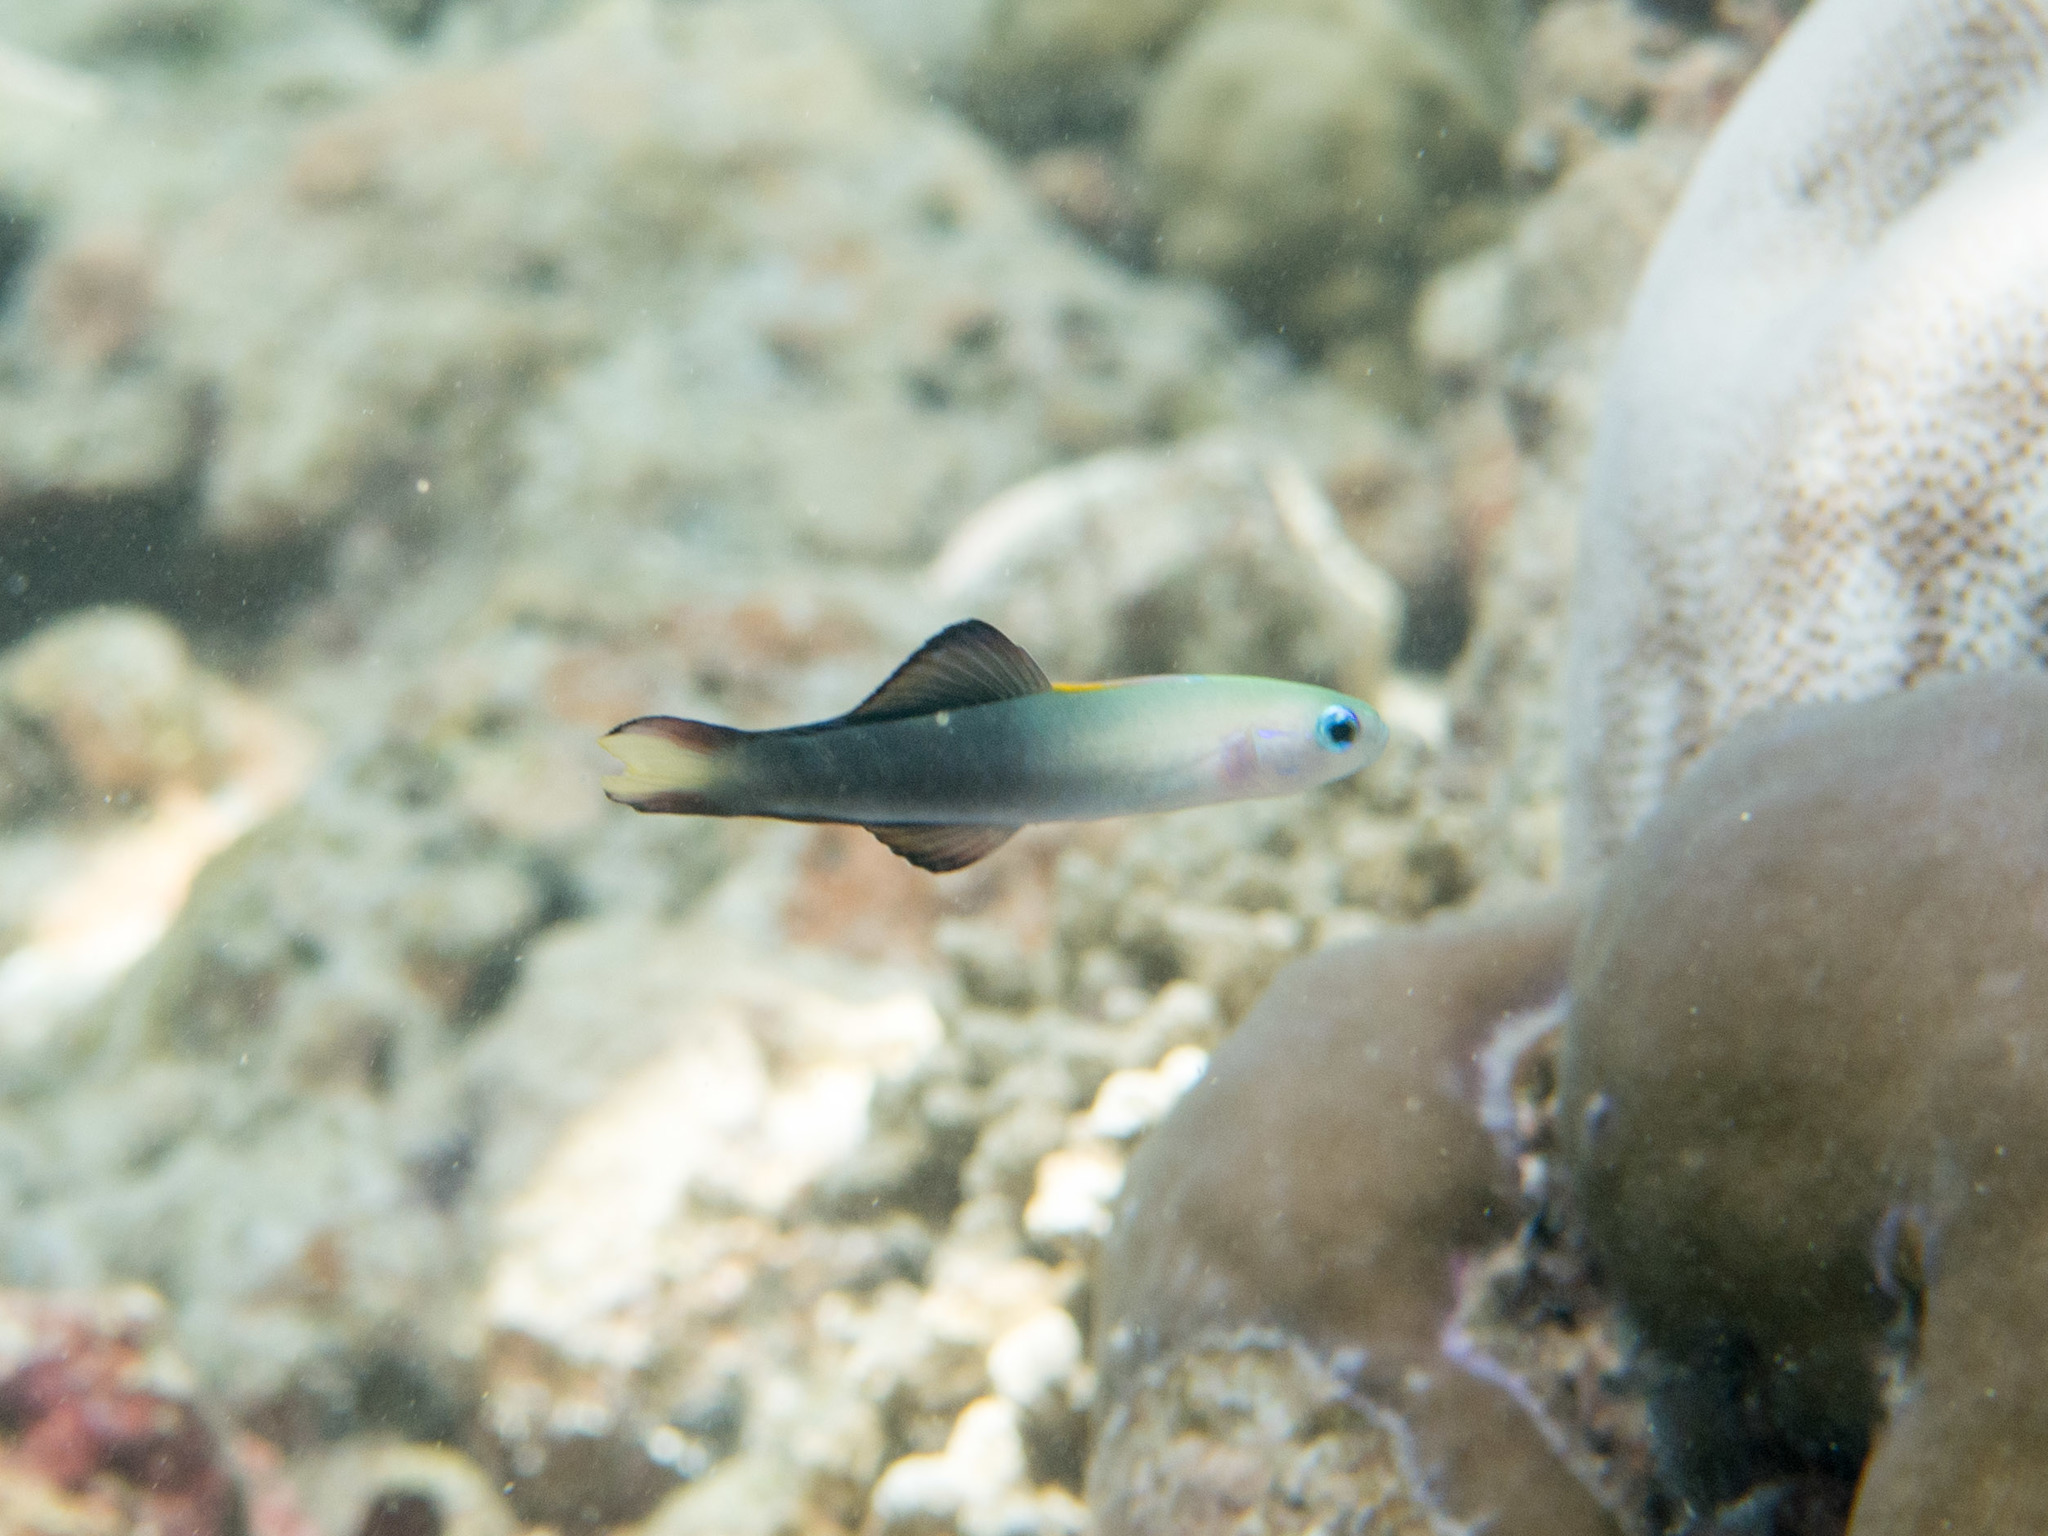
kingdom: Animalia
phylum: Chordata
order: Perciformes
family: Microdesmidae
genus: Ptereleotris
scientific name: Ptereleotris evides
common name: Blackfin dartfish
